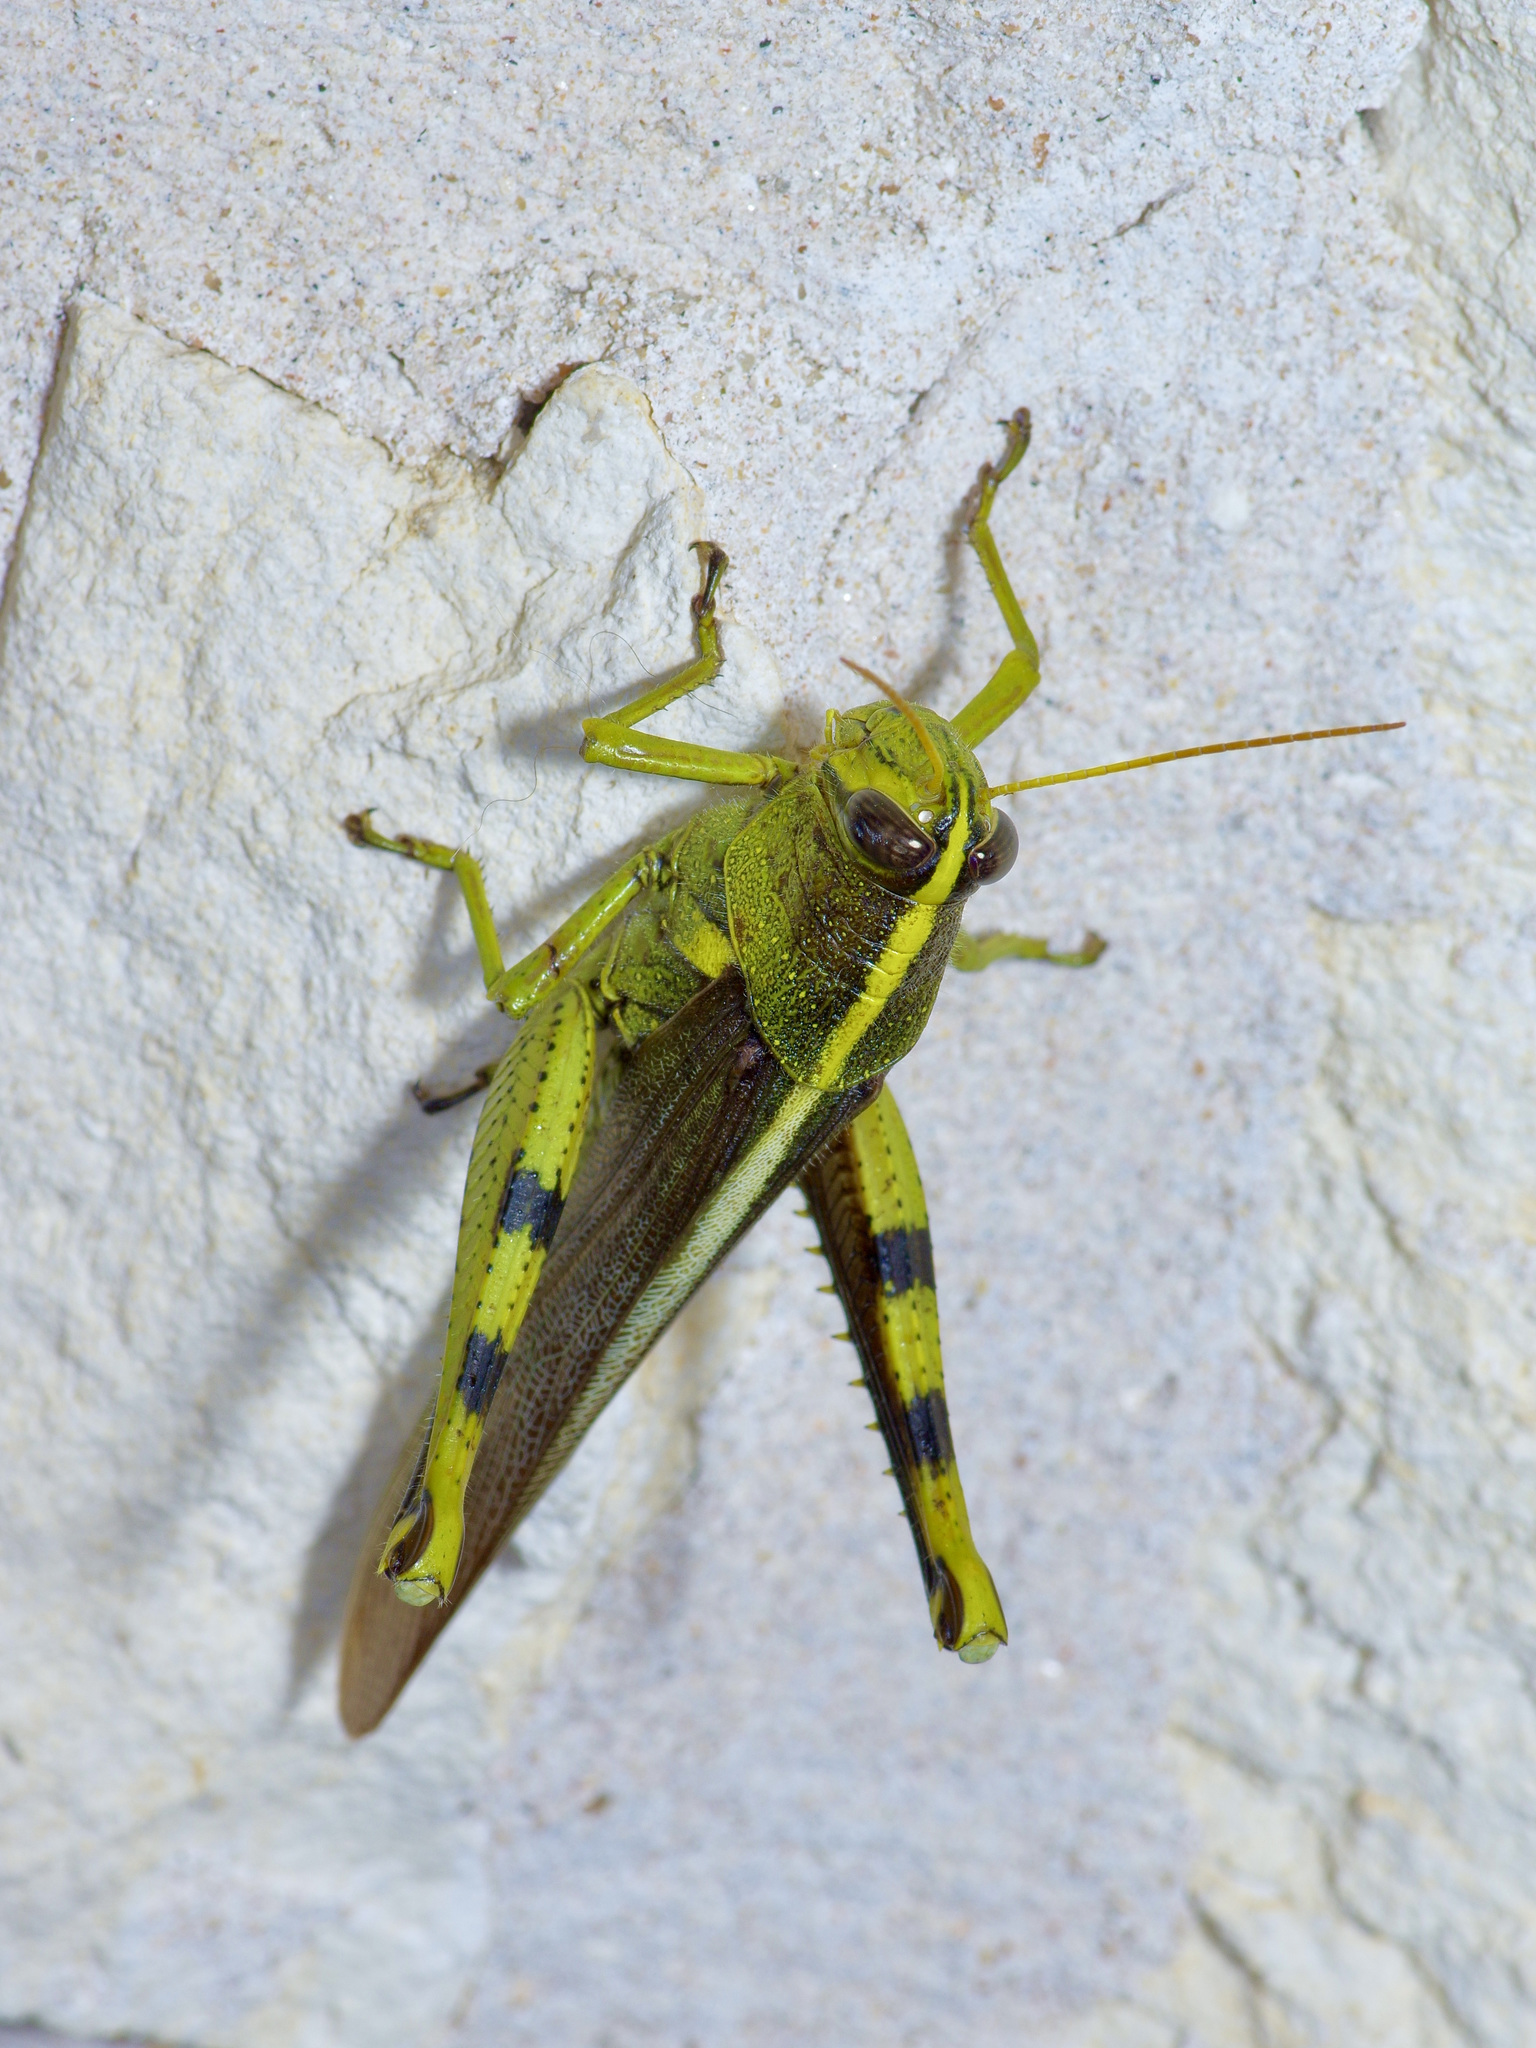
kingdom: Animalia
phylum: Arthropoda
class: Insecta
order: Orthoptera
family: Acrididae
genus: Schistocerca
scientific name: Schistocerca obscura
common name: Obscure bird grasshopper
